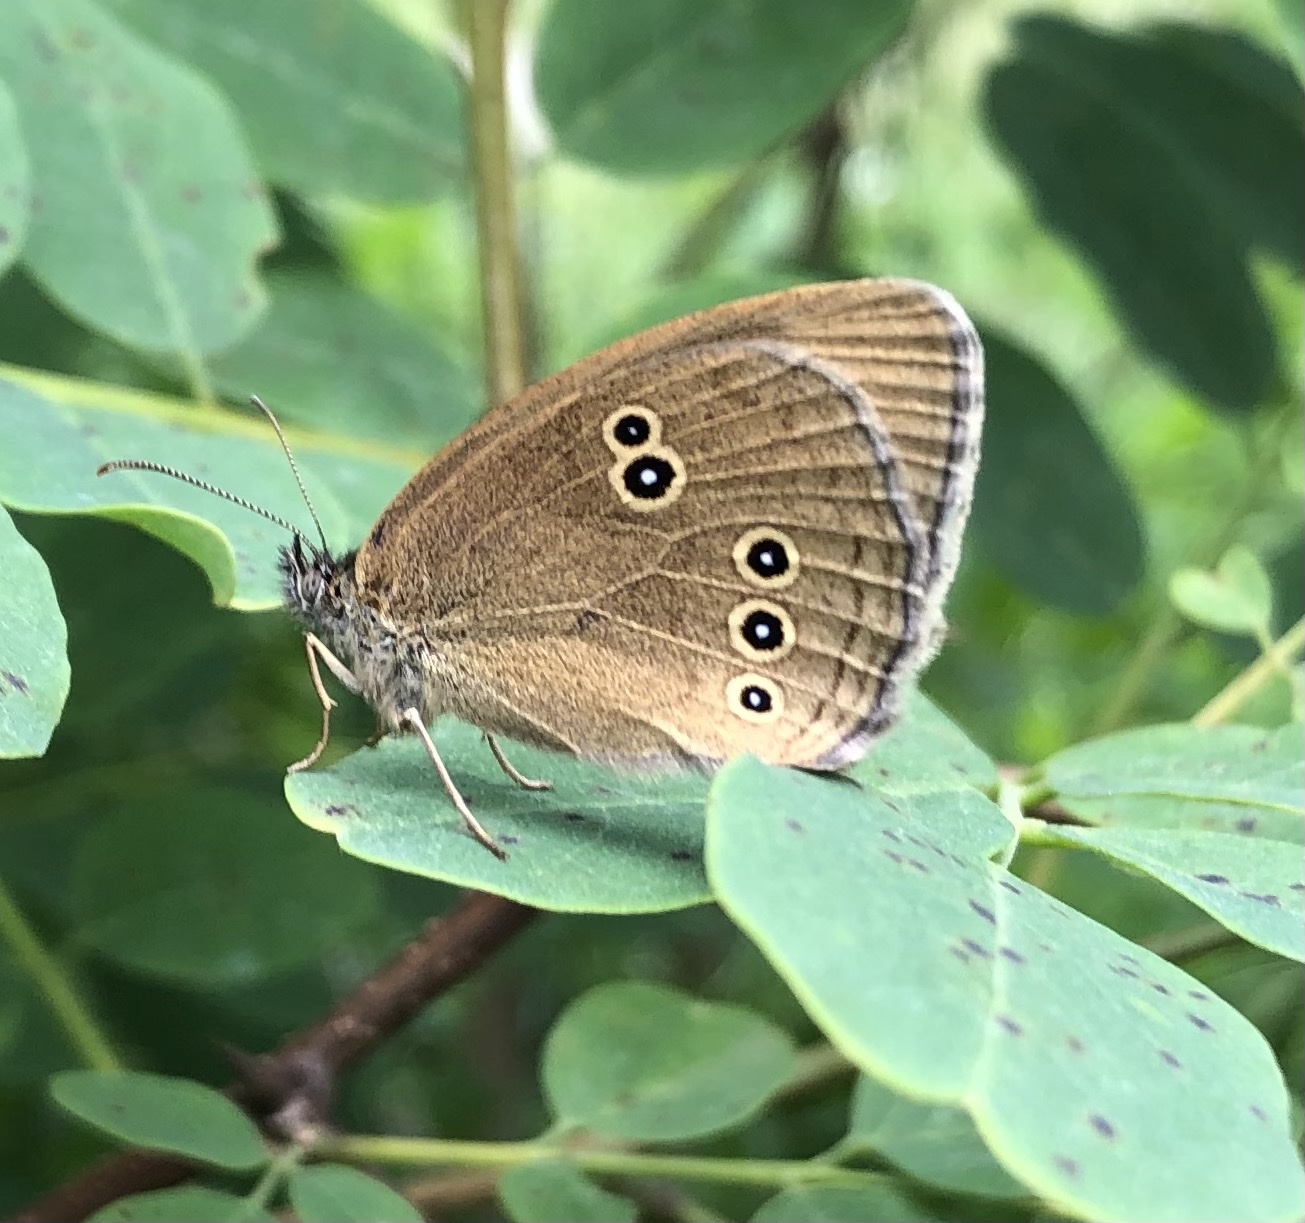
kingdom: Animalia
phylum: Arthropoda
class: Insecta
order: Lepidoptera
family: Nymphalidae
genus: Aphantopus
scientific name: Aphantopus hyperantus
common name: Ringlet
